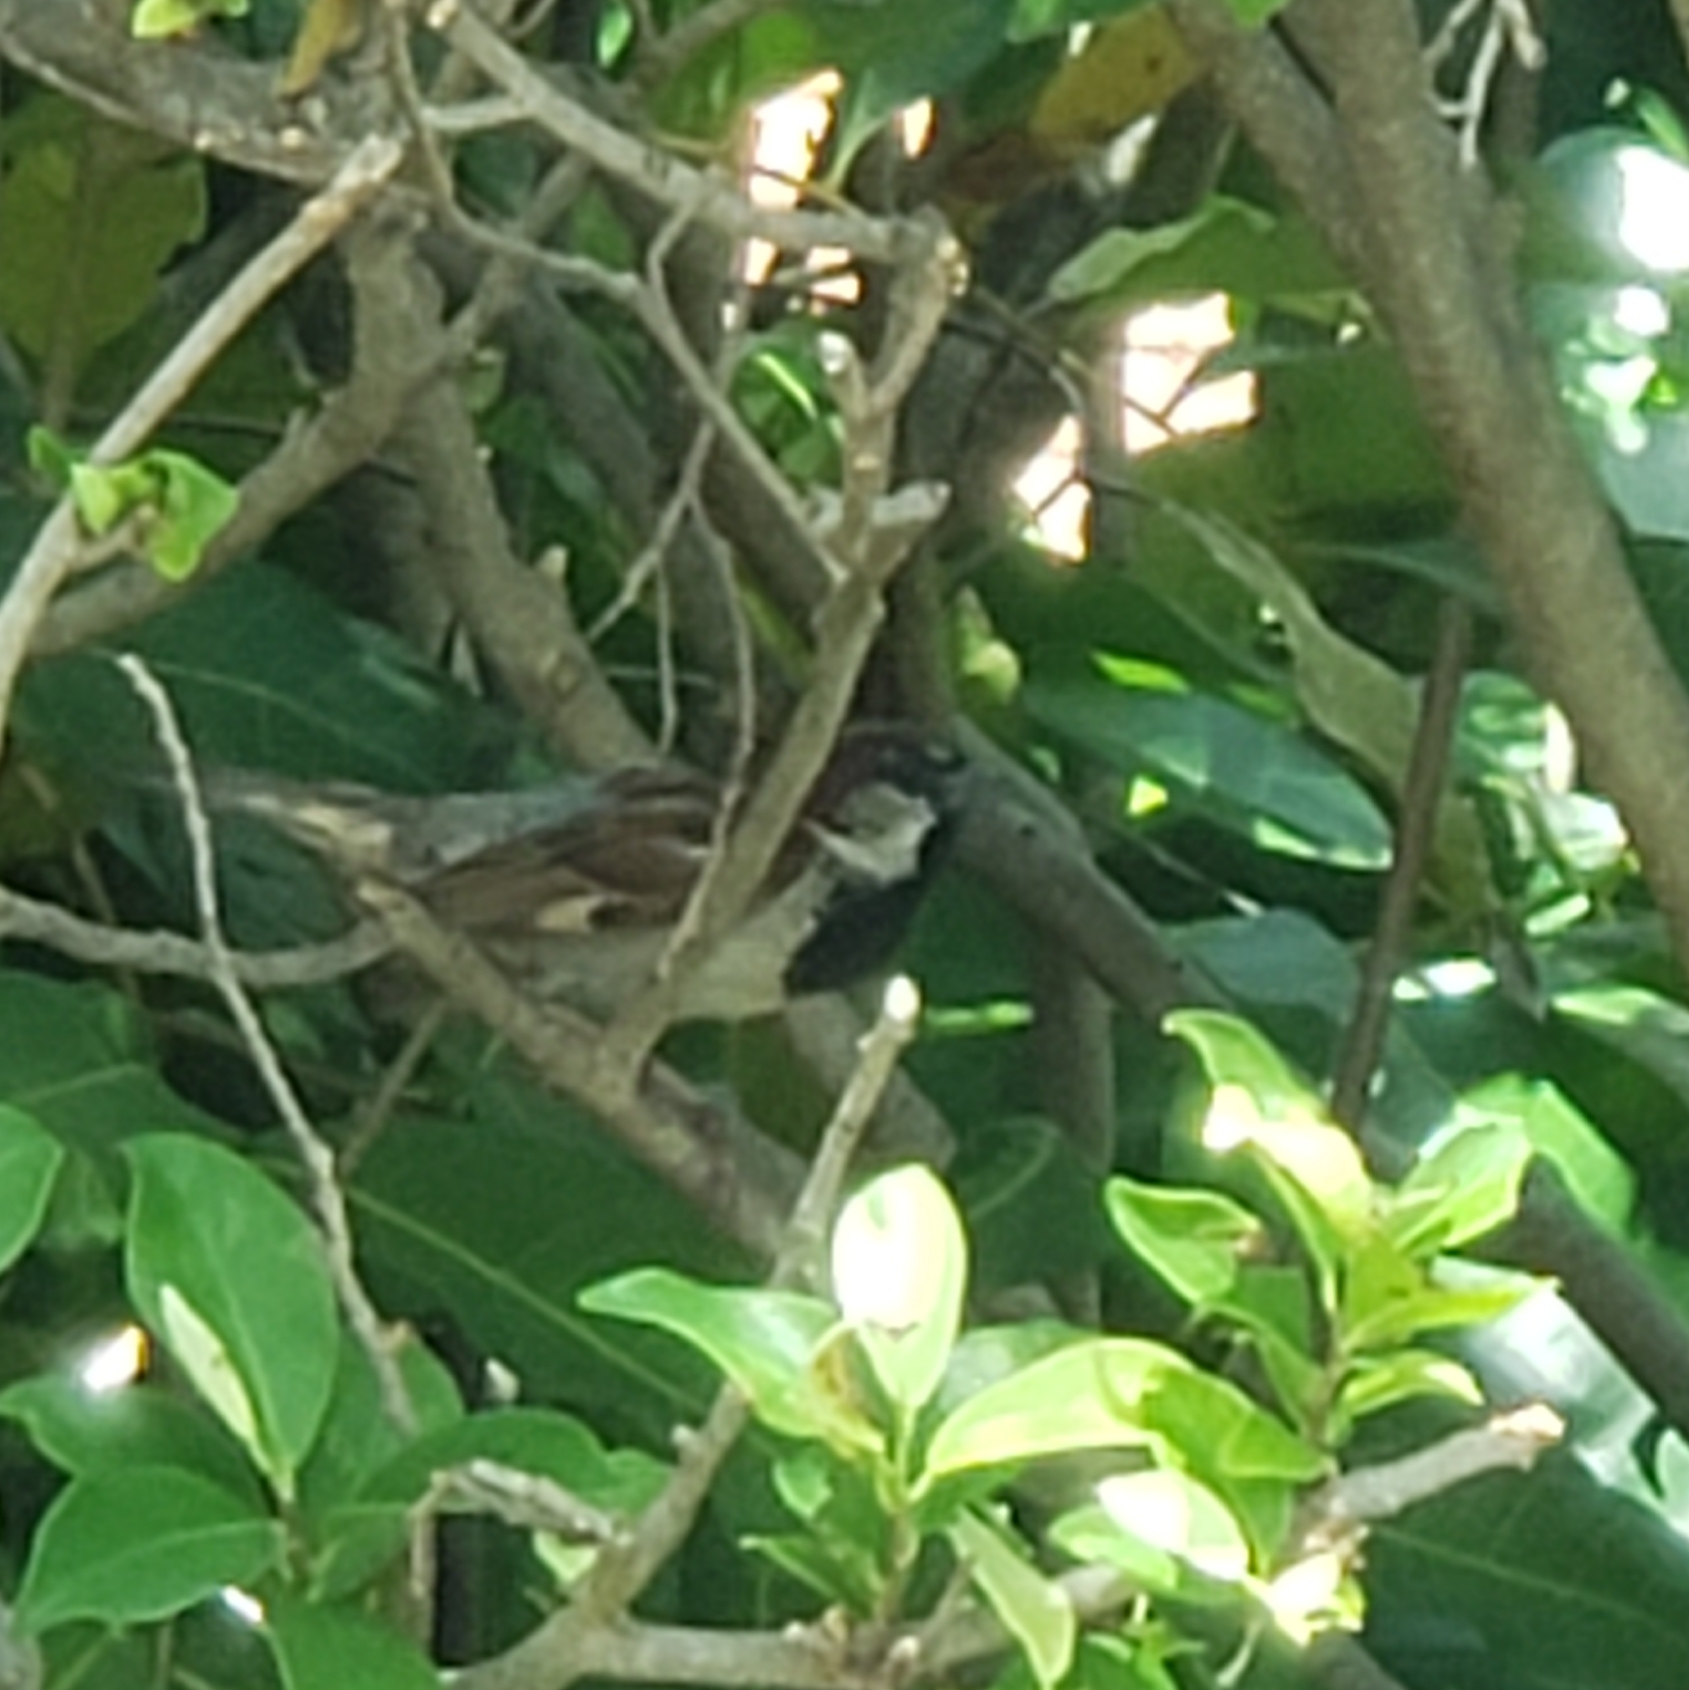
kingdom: Animalia
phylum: Chordata
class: Aves
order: Passeriformes
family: Passeridae
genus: Passer
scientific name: Passer domesticus
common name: House sparrow
